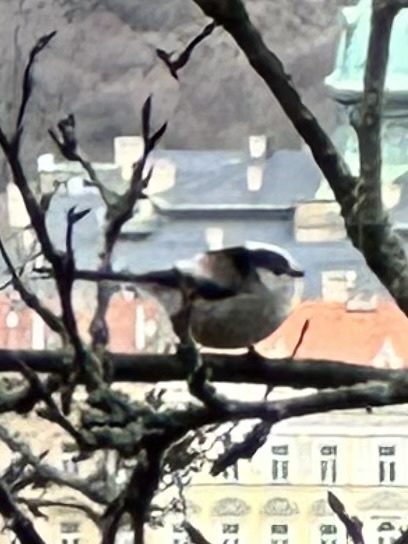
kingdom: Animalia
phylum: Chordata
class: Aves
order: Passeriformes
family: Aegithalidae
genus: Aegithalos
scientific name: Aegithalos caudatus
